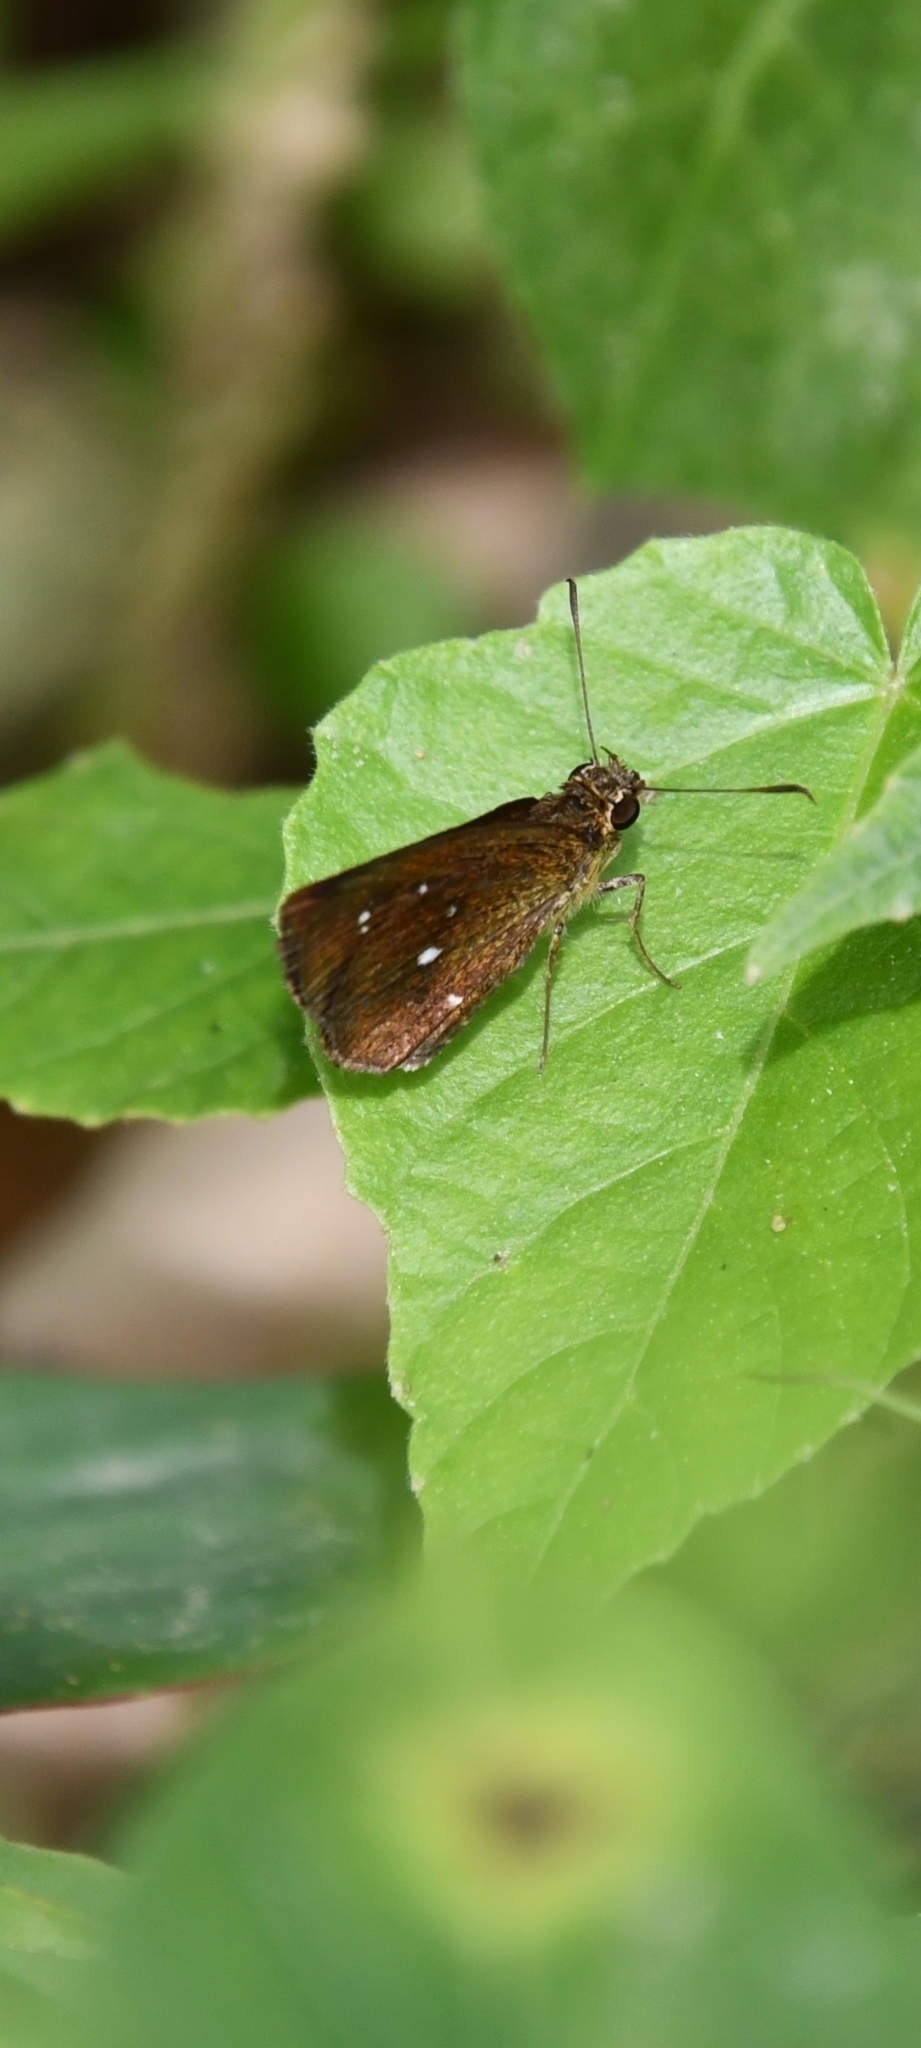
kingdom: Animalia
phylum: Arthropoda
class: Insecta
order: Lepidoptera
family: Hesperiidae
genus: Iambrix
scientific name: Iambrix salsala
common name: Chestnut bob
